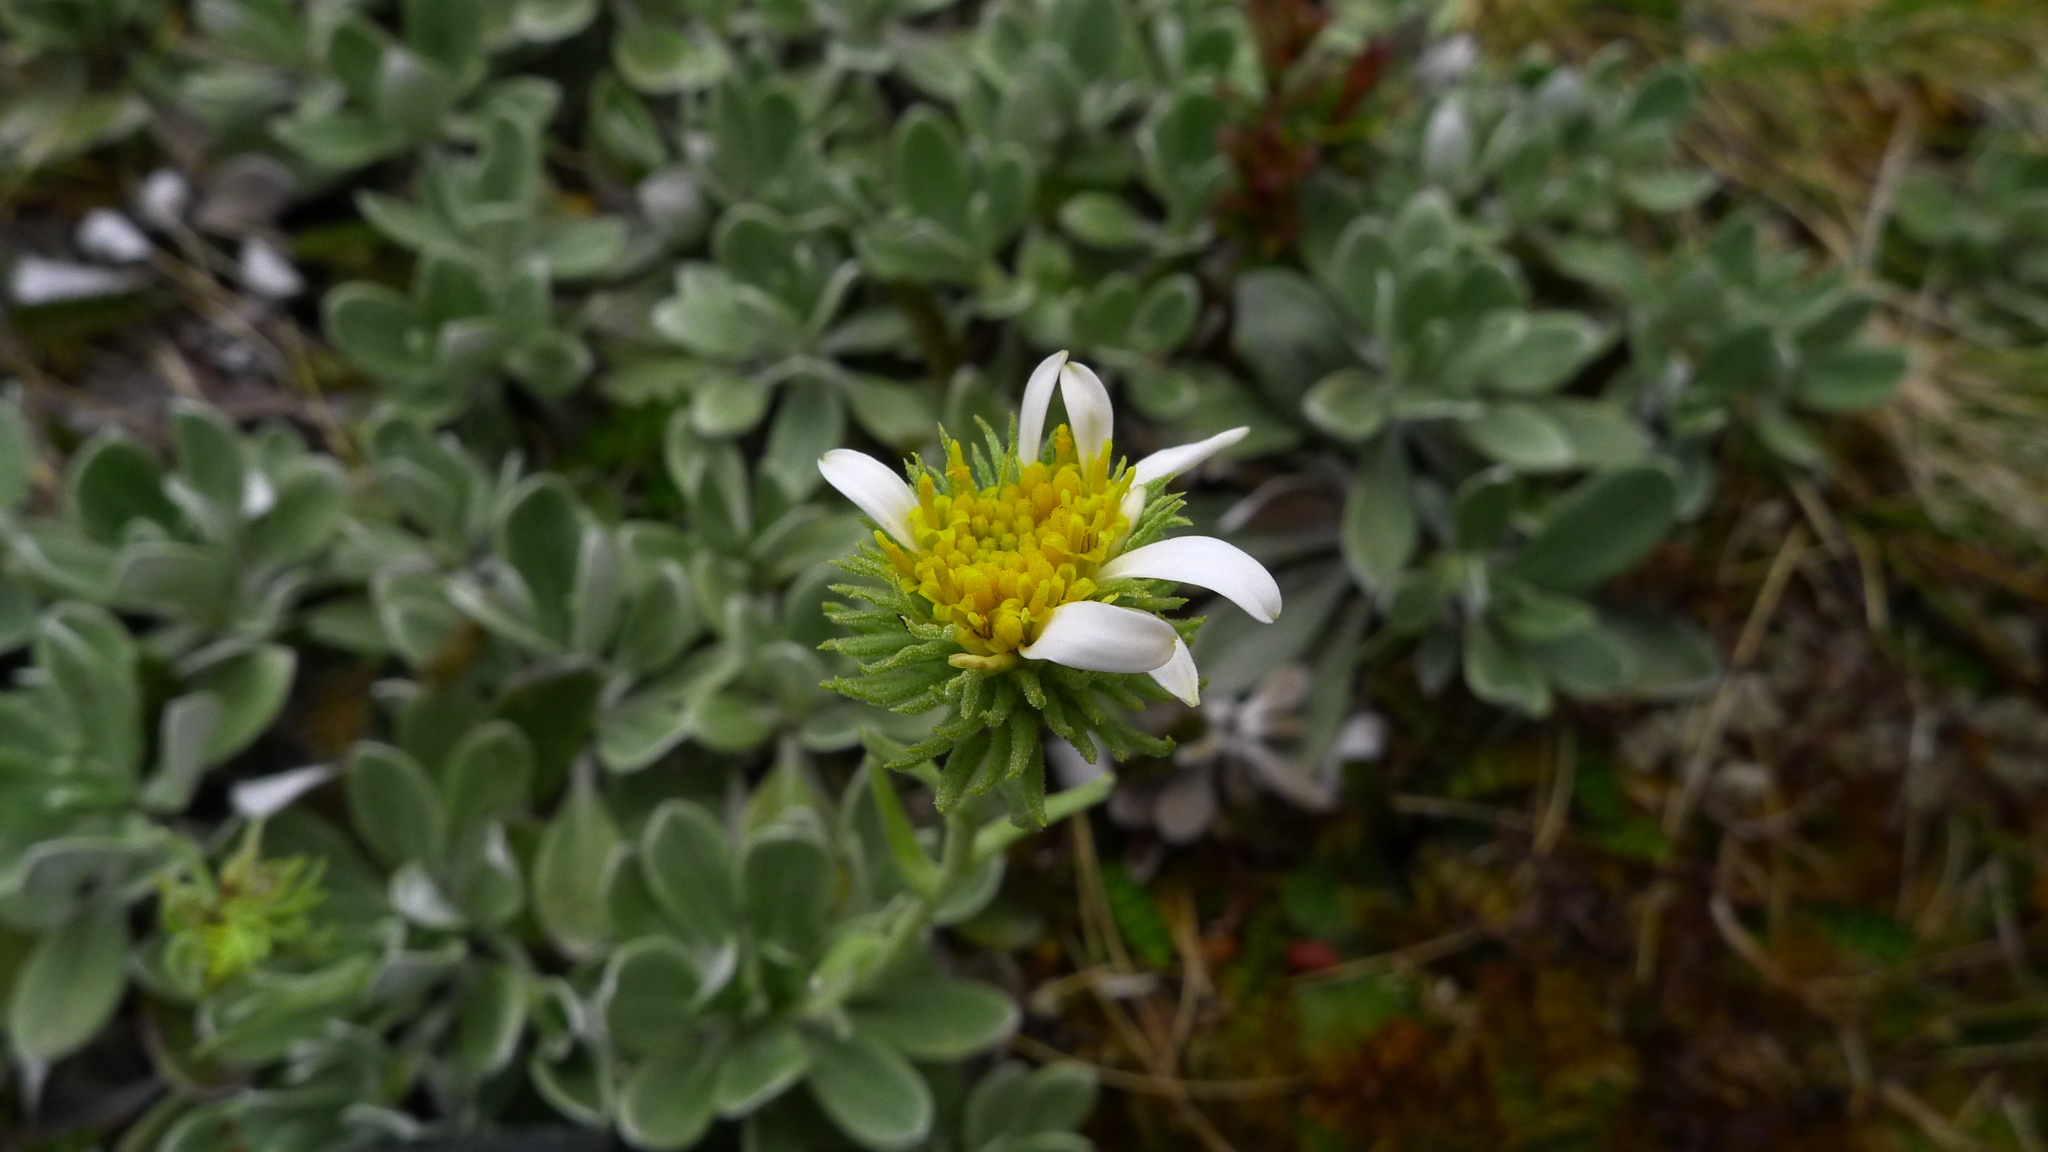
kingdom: Plantae
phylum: Tracheophyta
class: Magnoliopsida
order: Asterales
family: Asteraceae
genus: Celmisia
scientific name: Celmisia discolor
